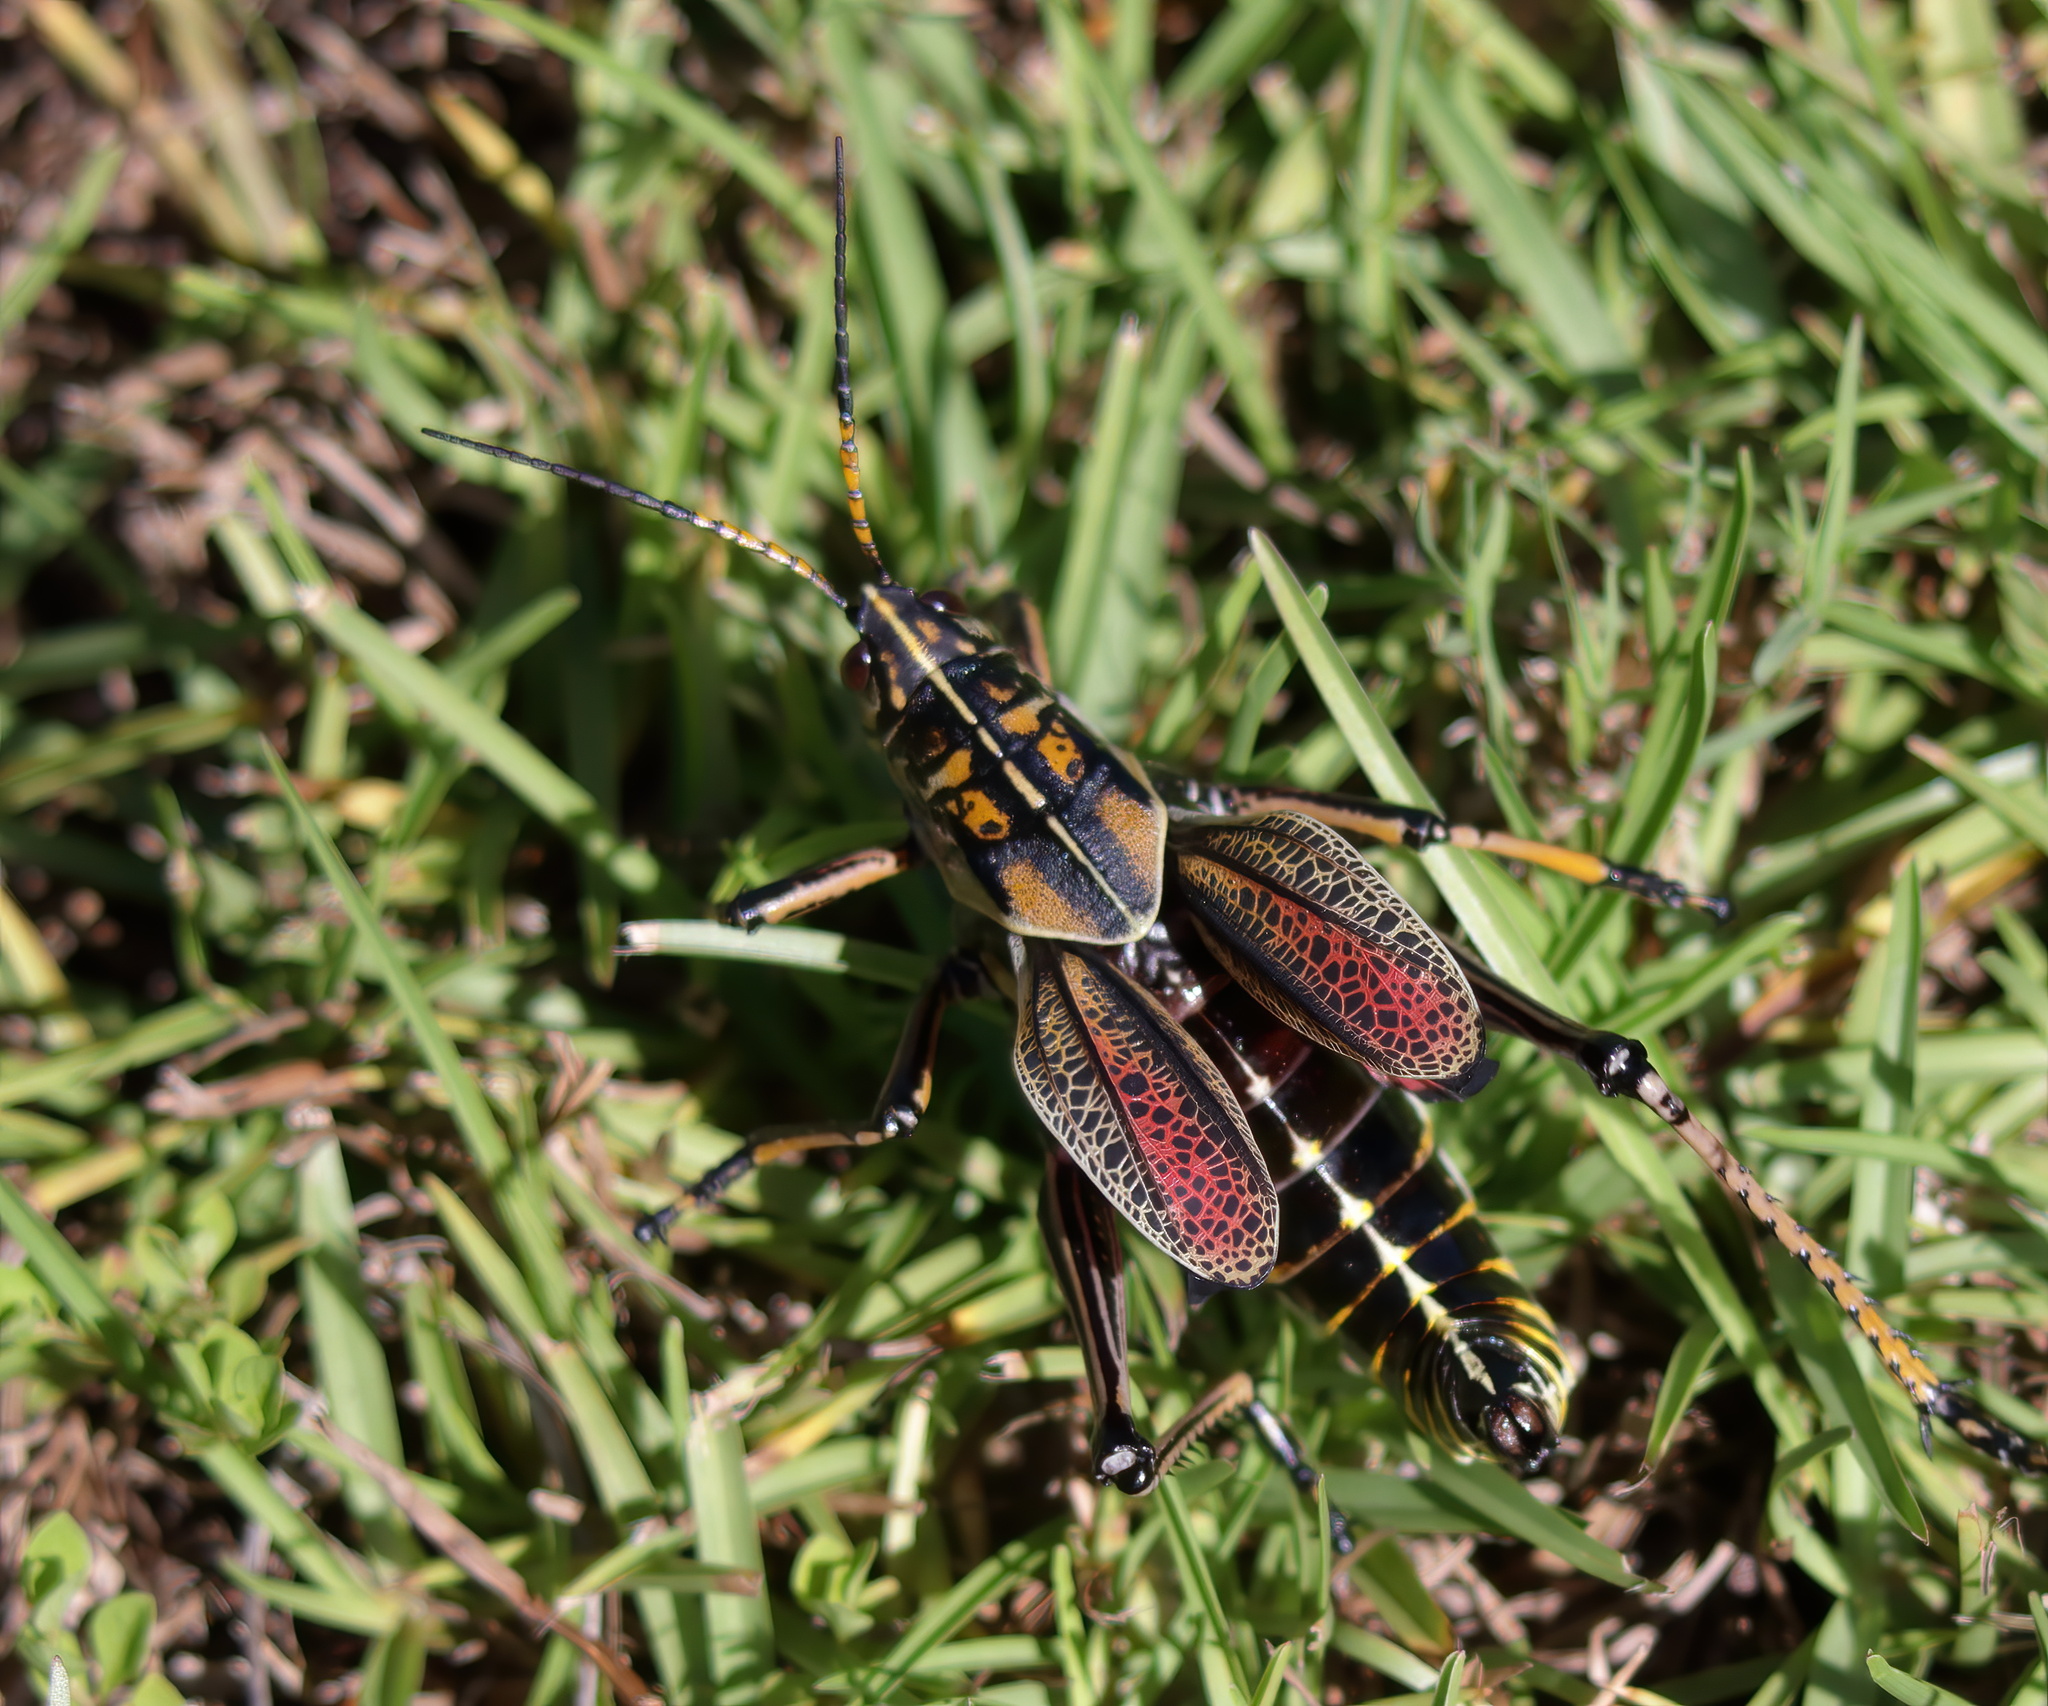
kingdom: Animalia
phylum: Arthropoda
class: Insecta
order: Orthoptera
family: Romaleidae
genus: Romalea
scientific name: Romalea microptera
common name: Eastern lubber grasshopper
